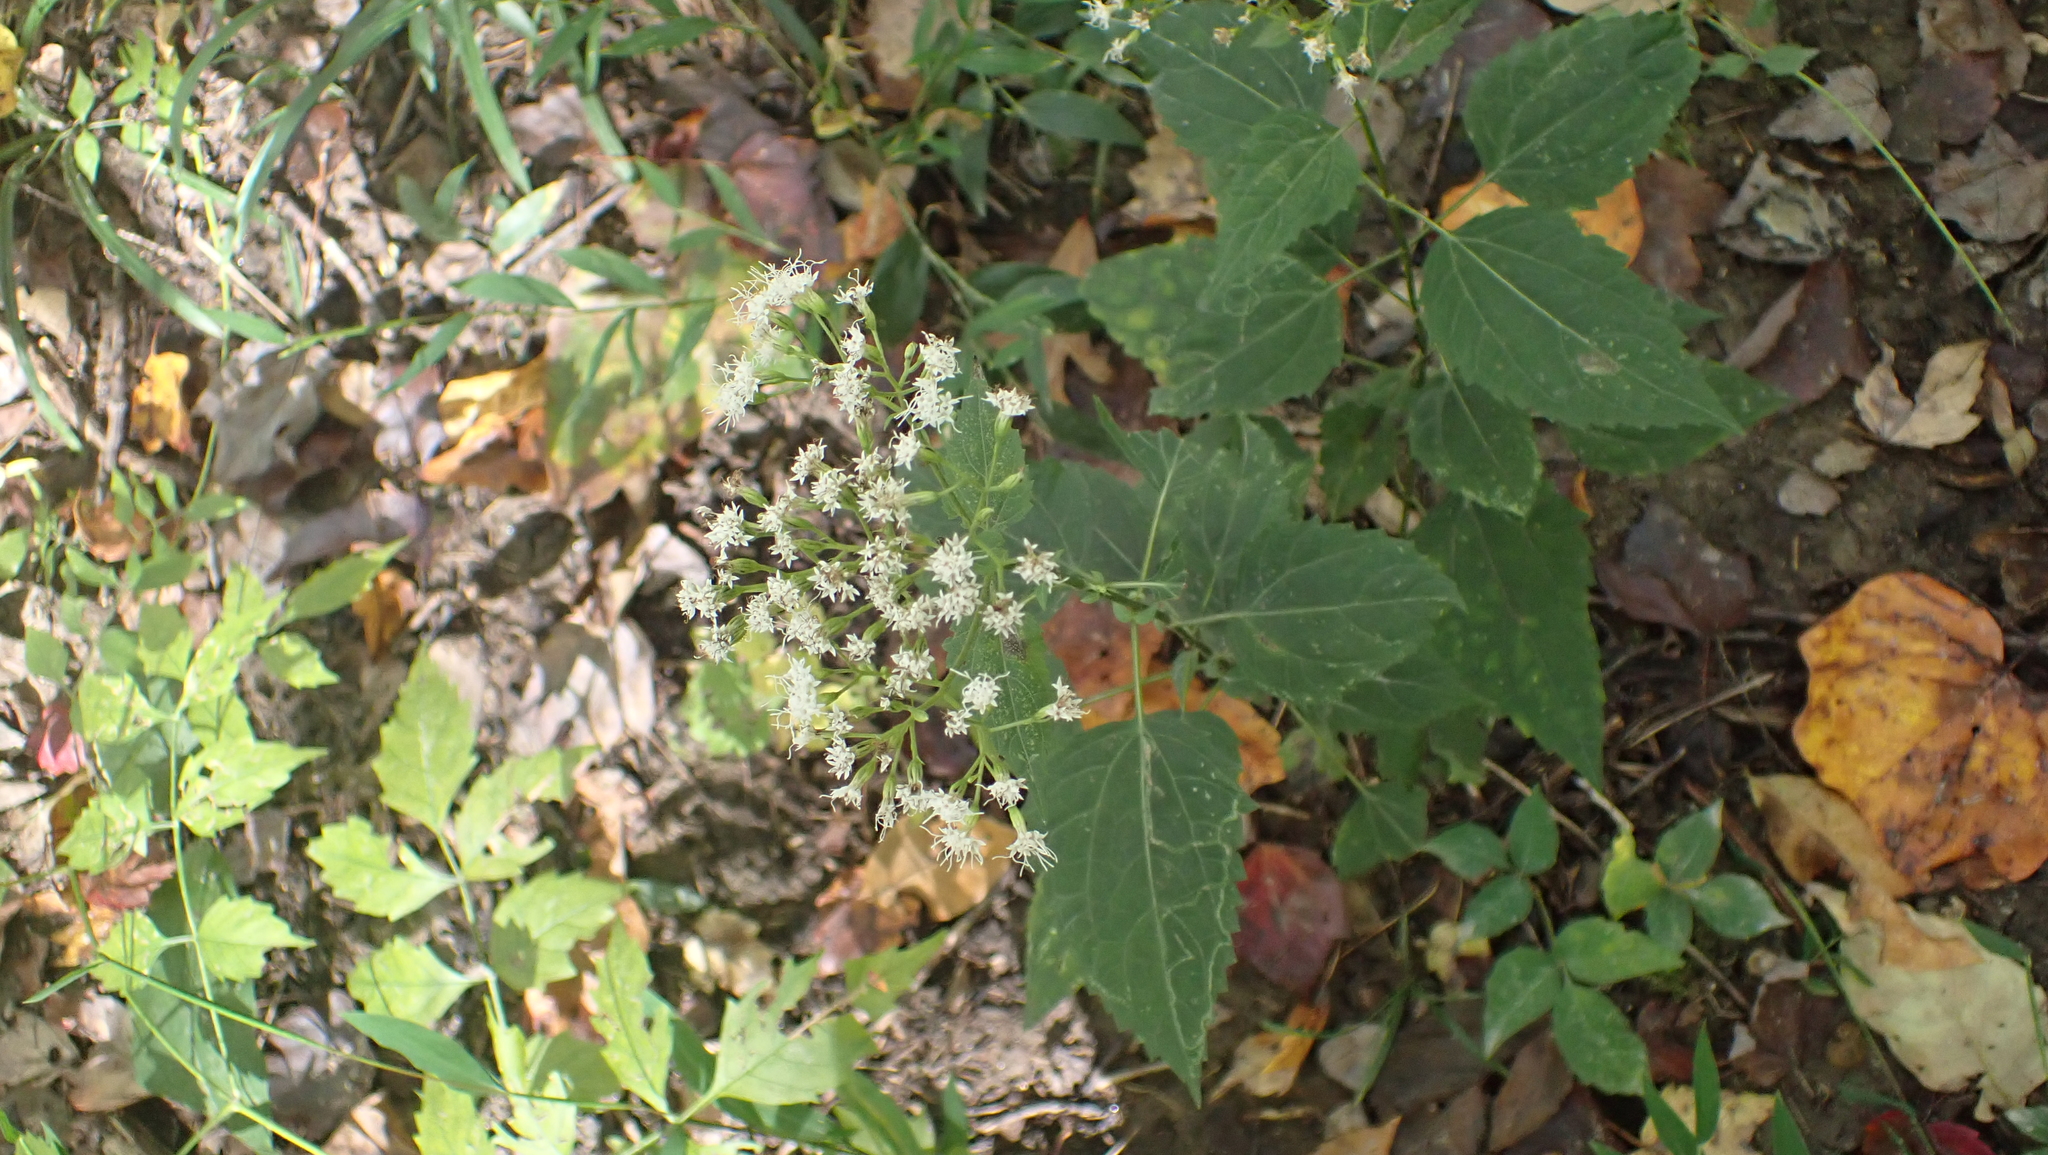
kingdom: Plantae
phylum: Tracheophyta
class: Magnoliopsida
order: Asterales
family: Asteraceae
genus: Ageratina
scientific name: Ageratina altissima
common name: White snakeroot
